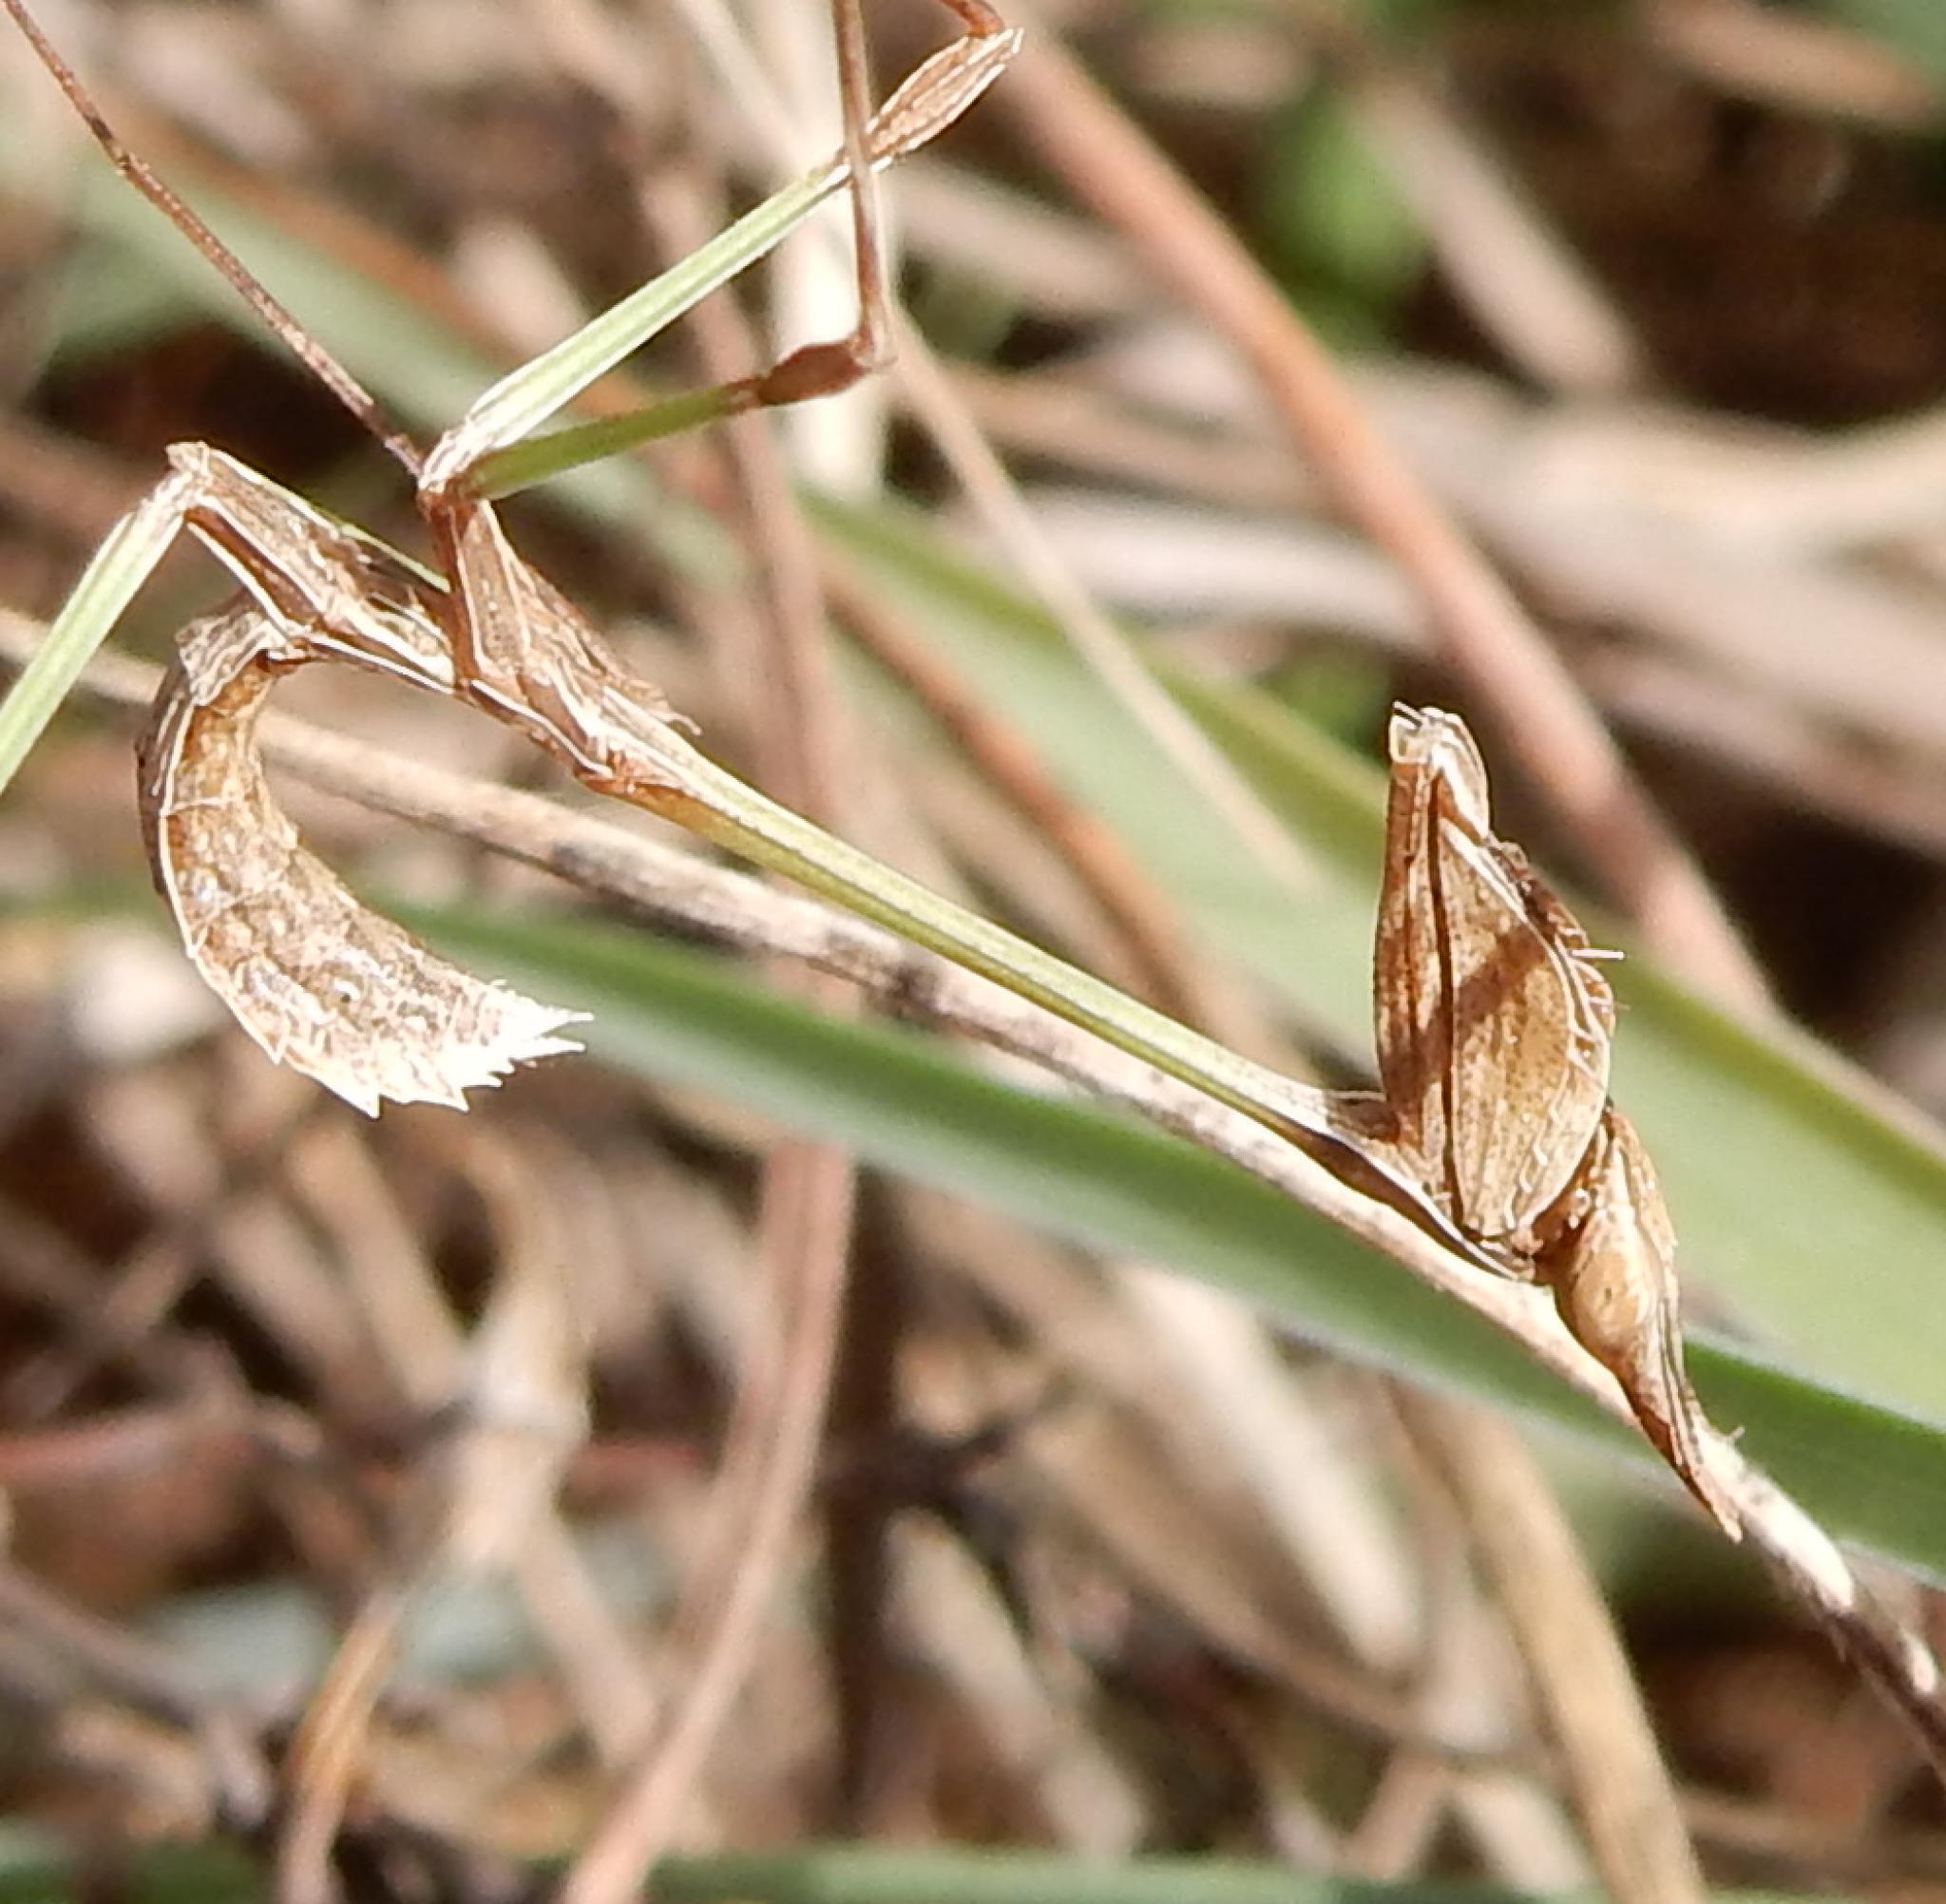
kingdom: Animalia
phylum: Arthropoda
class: Insecta
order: Mantodea
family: Empusidae
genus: Idolomorpha
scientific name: Idolomorpha dentifrons
